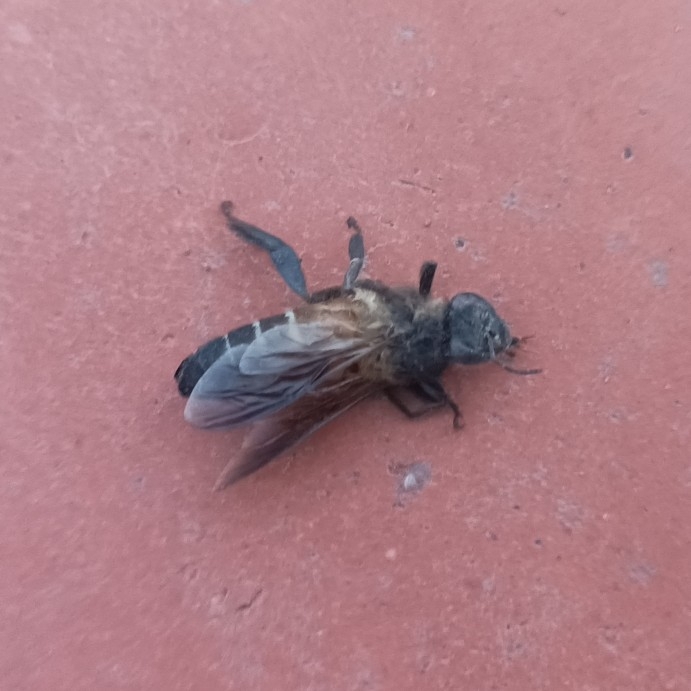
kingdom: Animalia
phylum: Arthropoda
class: Insecta
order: Hymenoptera
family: Apidae
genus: Apis
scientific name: Apis dorsata
